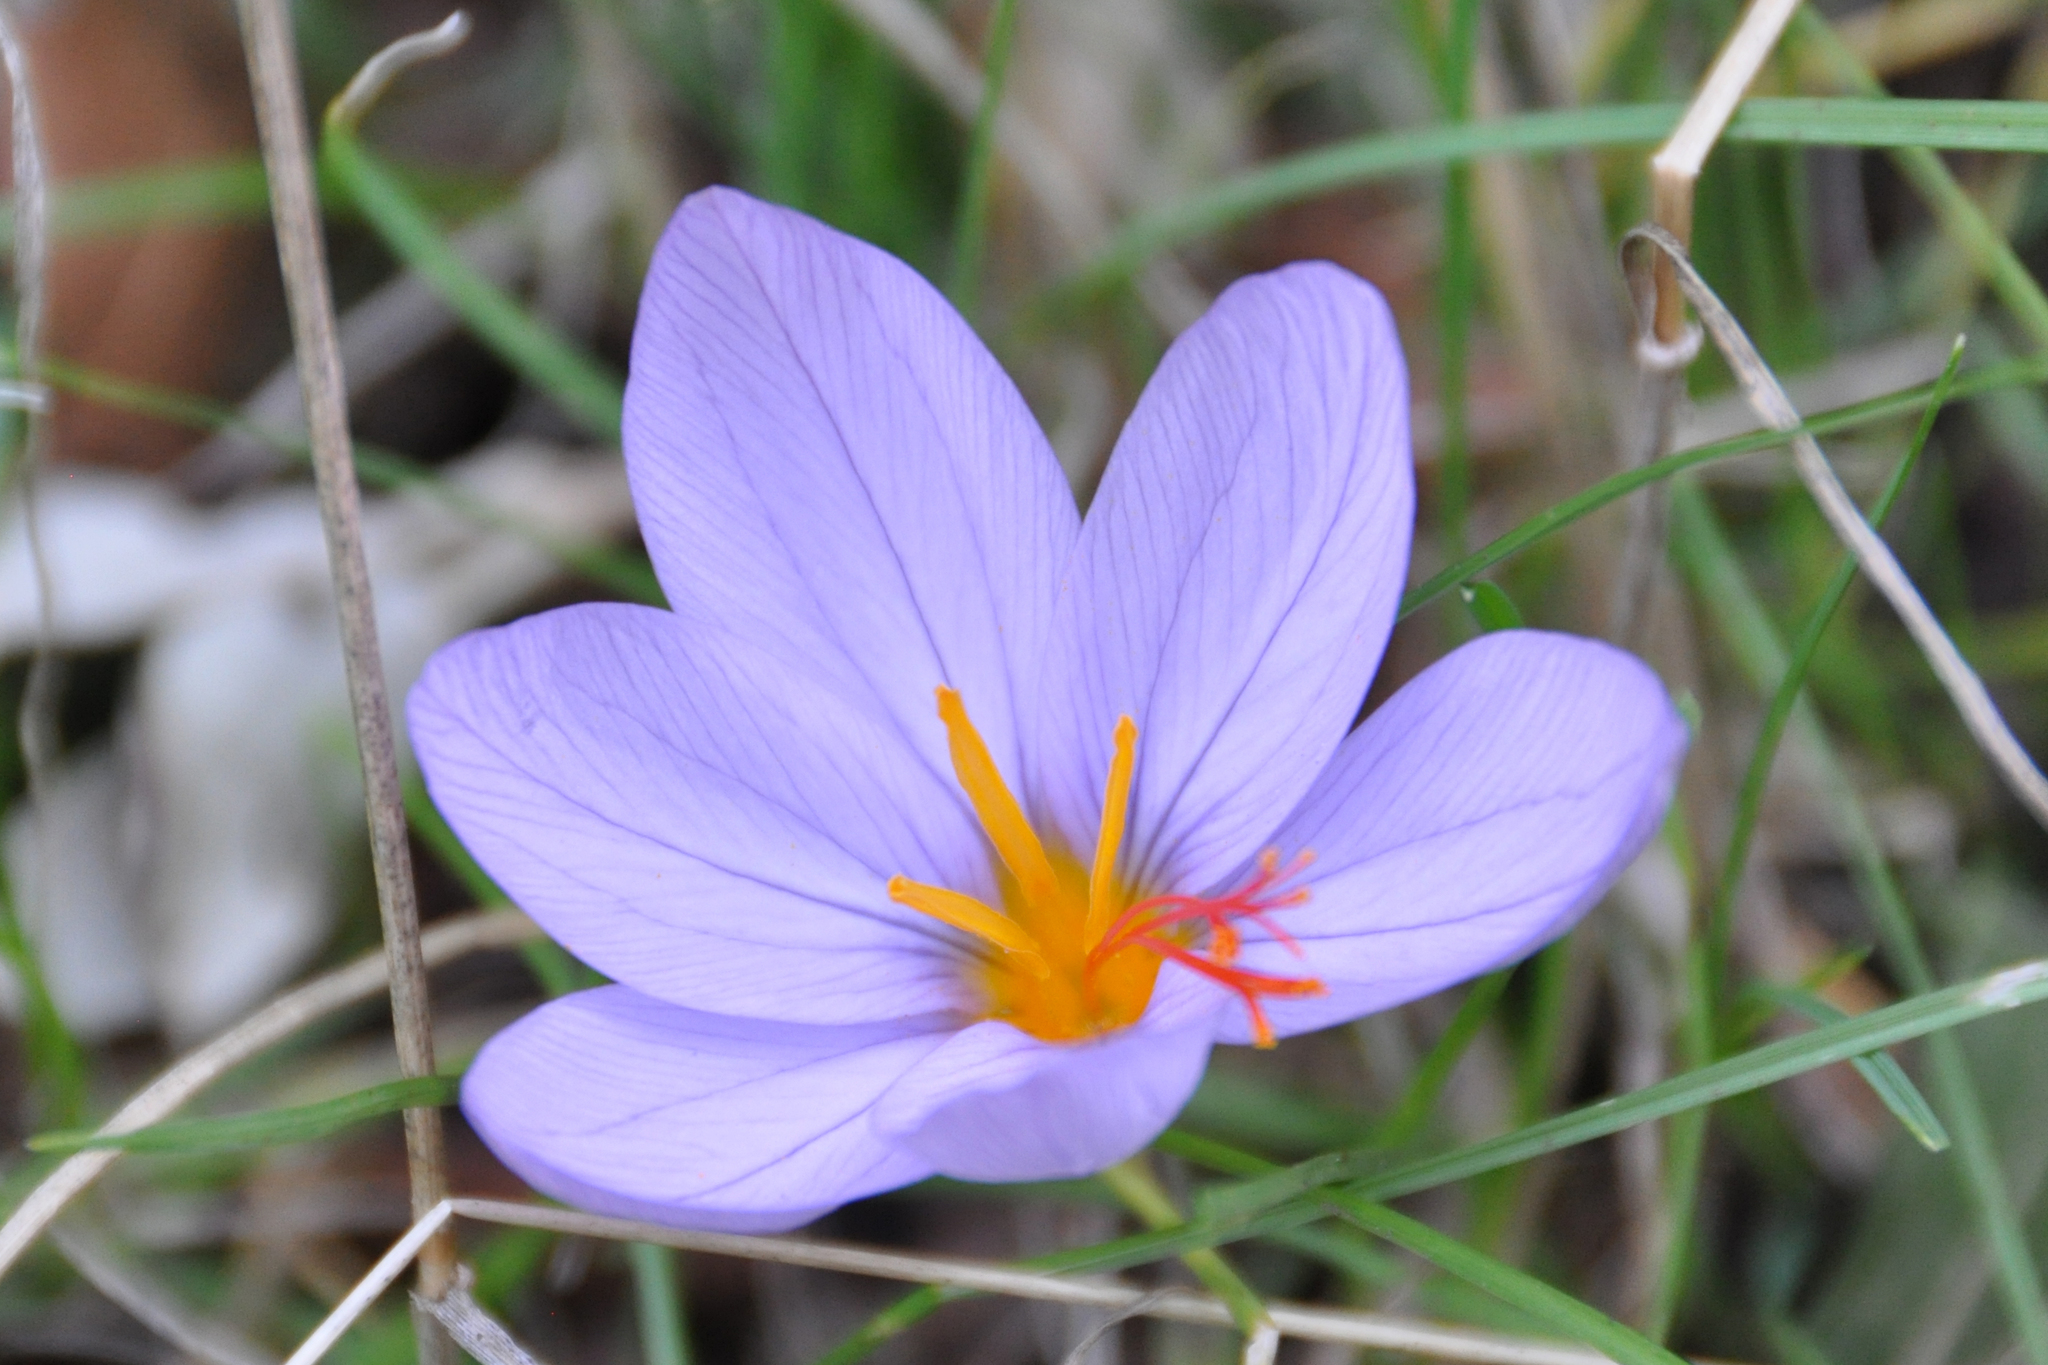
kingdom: Plantae
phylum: Tracheophyta
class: Liliopsida
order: Asparagales
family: Iridaceae
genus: Crocus
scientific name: Crocus longiflorus
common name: Italian crocus
